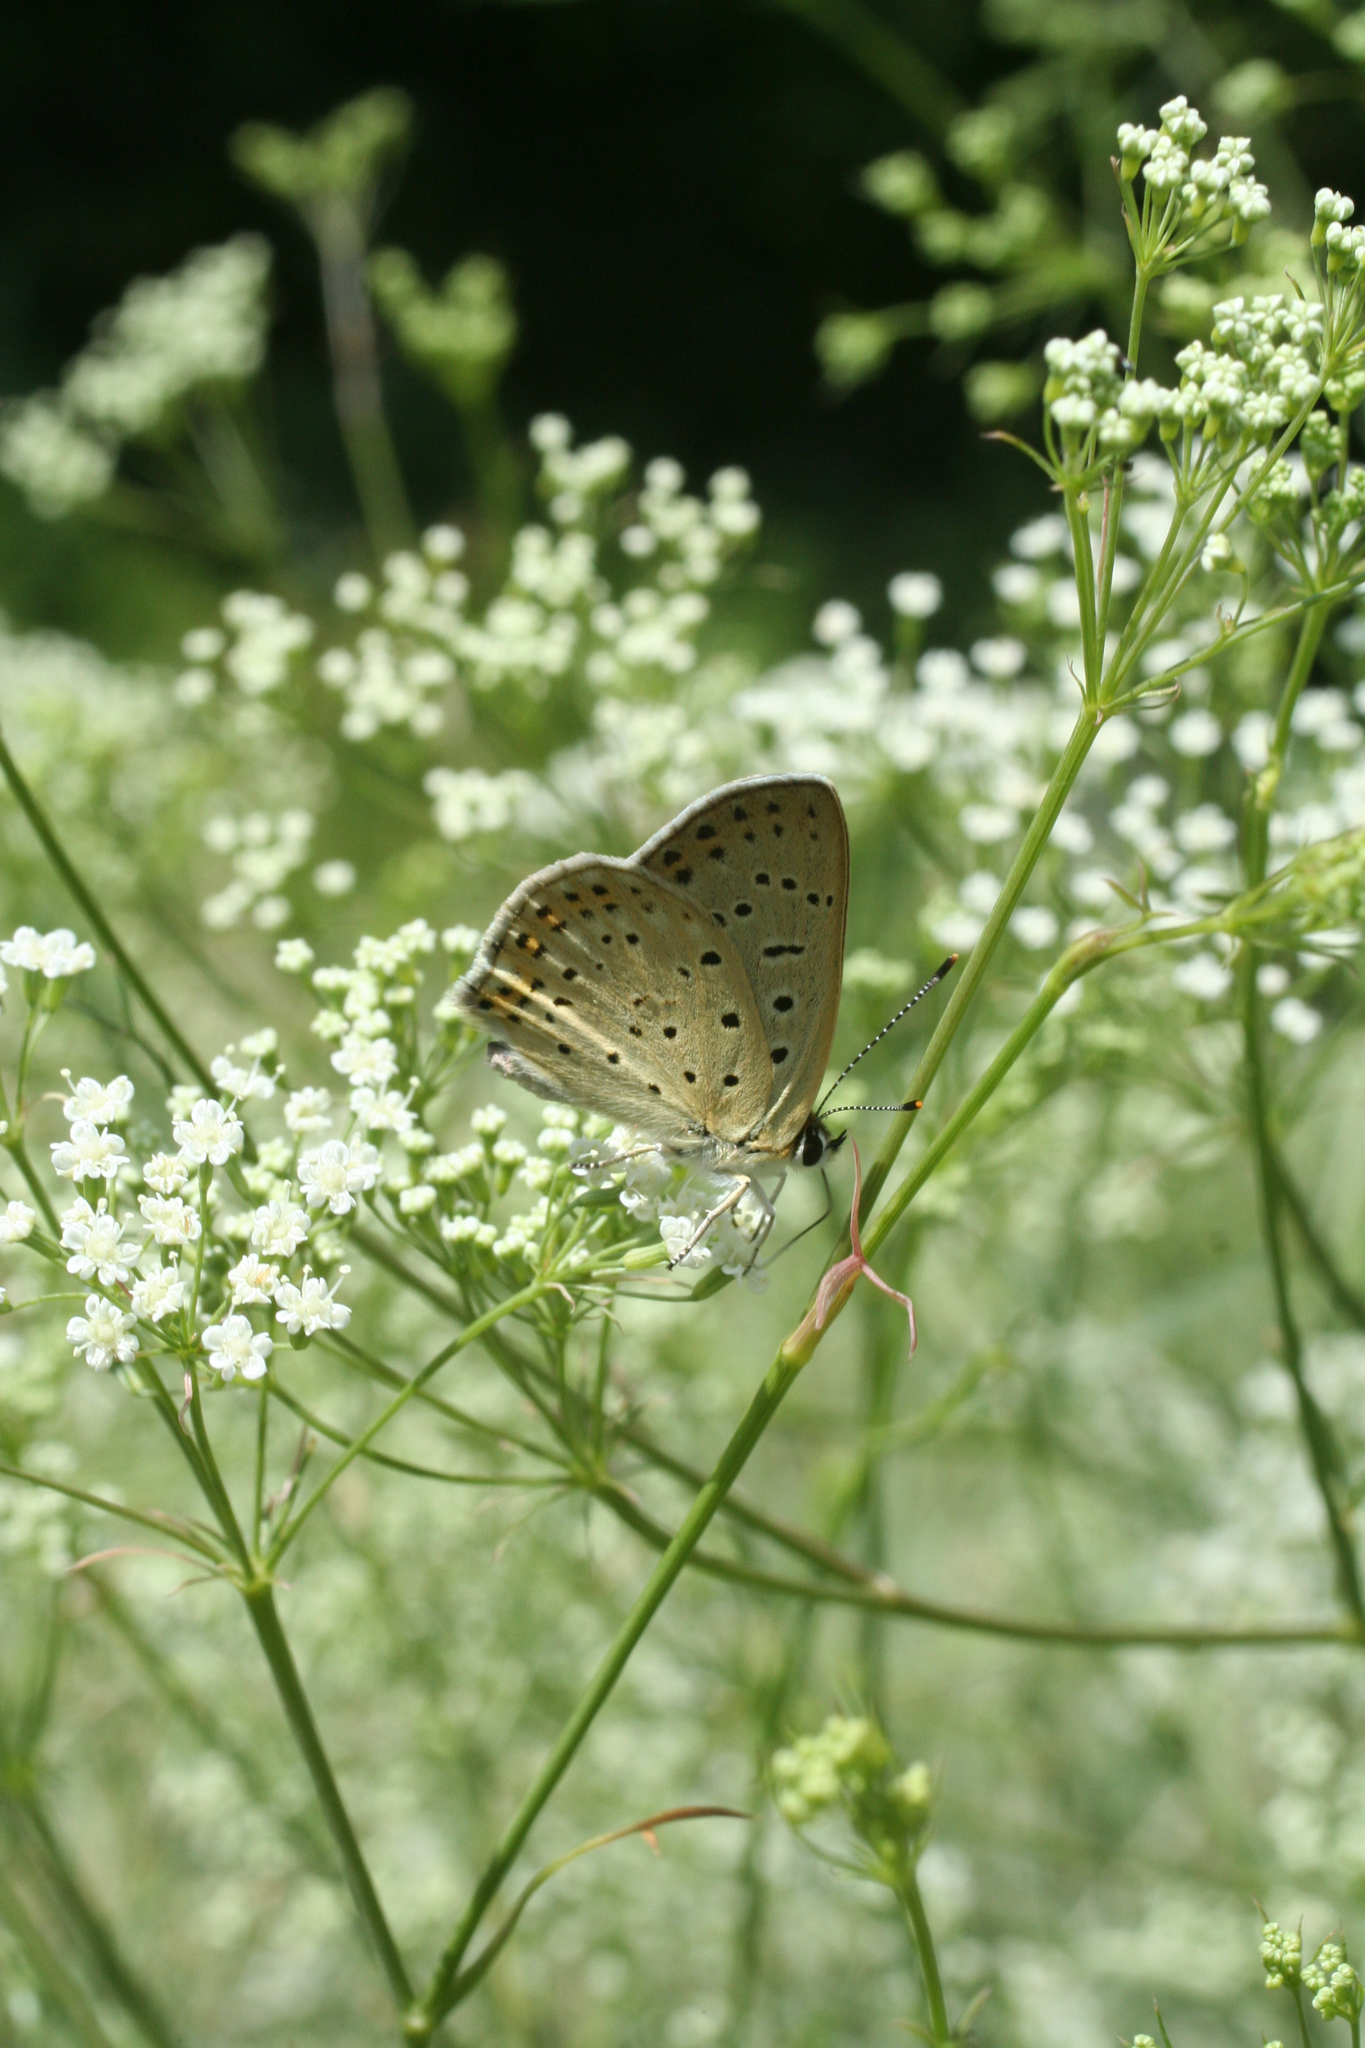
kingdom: Animalia
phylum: Arthropoda
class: Insecta
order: Lepidoptera
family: Lycaenidae
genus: Loweia
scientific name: Loweia tityrus
